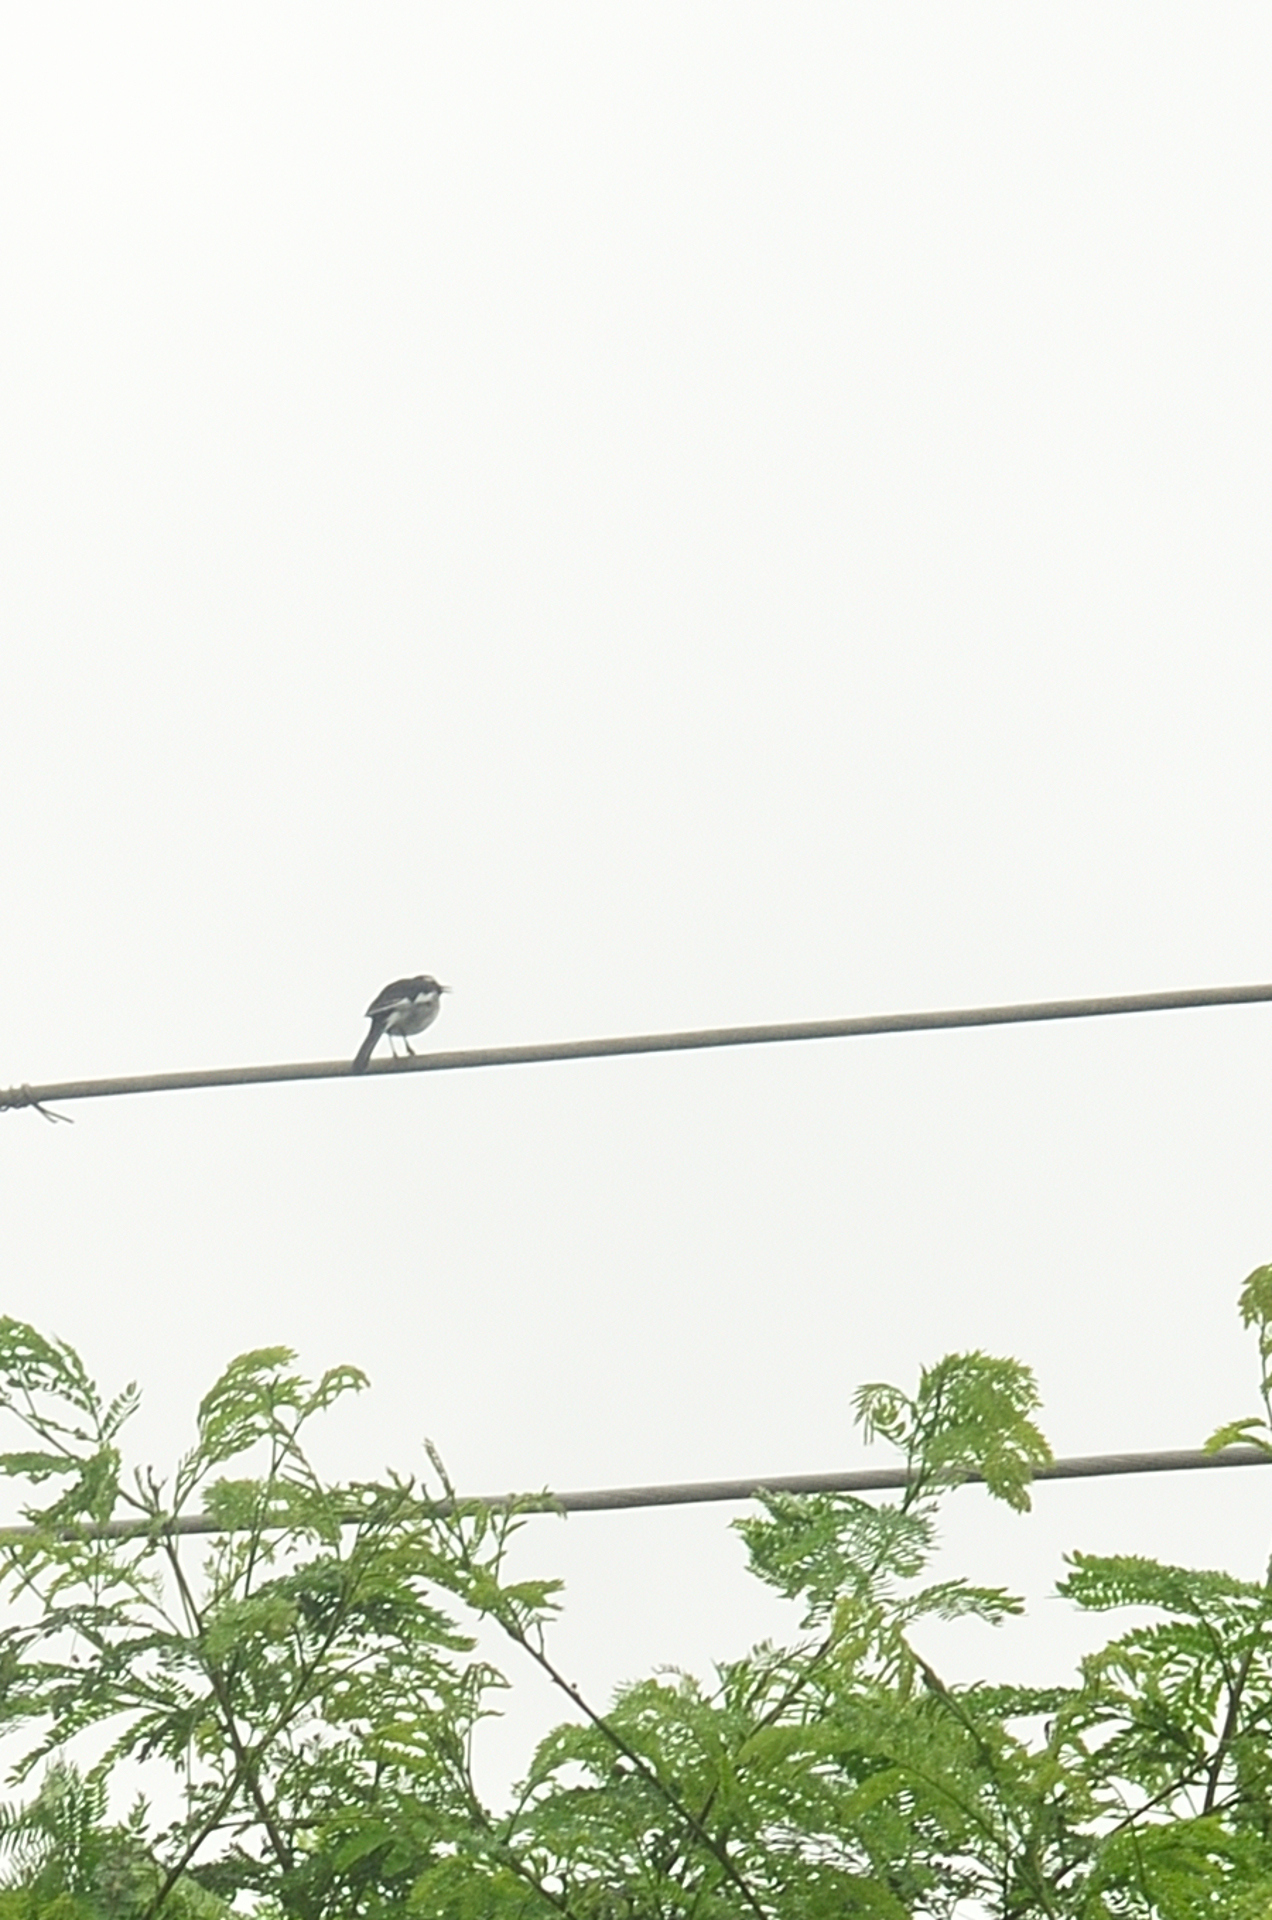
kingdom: Animalia
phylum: Chordata
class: Aves
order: Passeriformes
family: Motacillidae
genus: Motacilla
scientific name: Motacilla maderaspatensis
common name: White-browed wagtail
